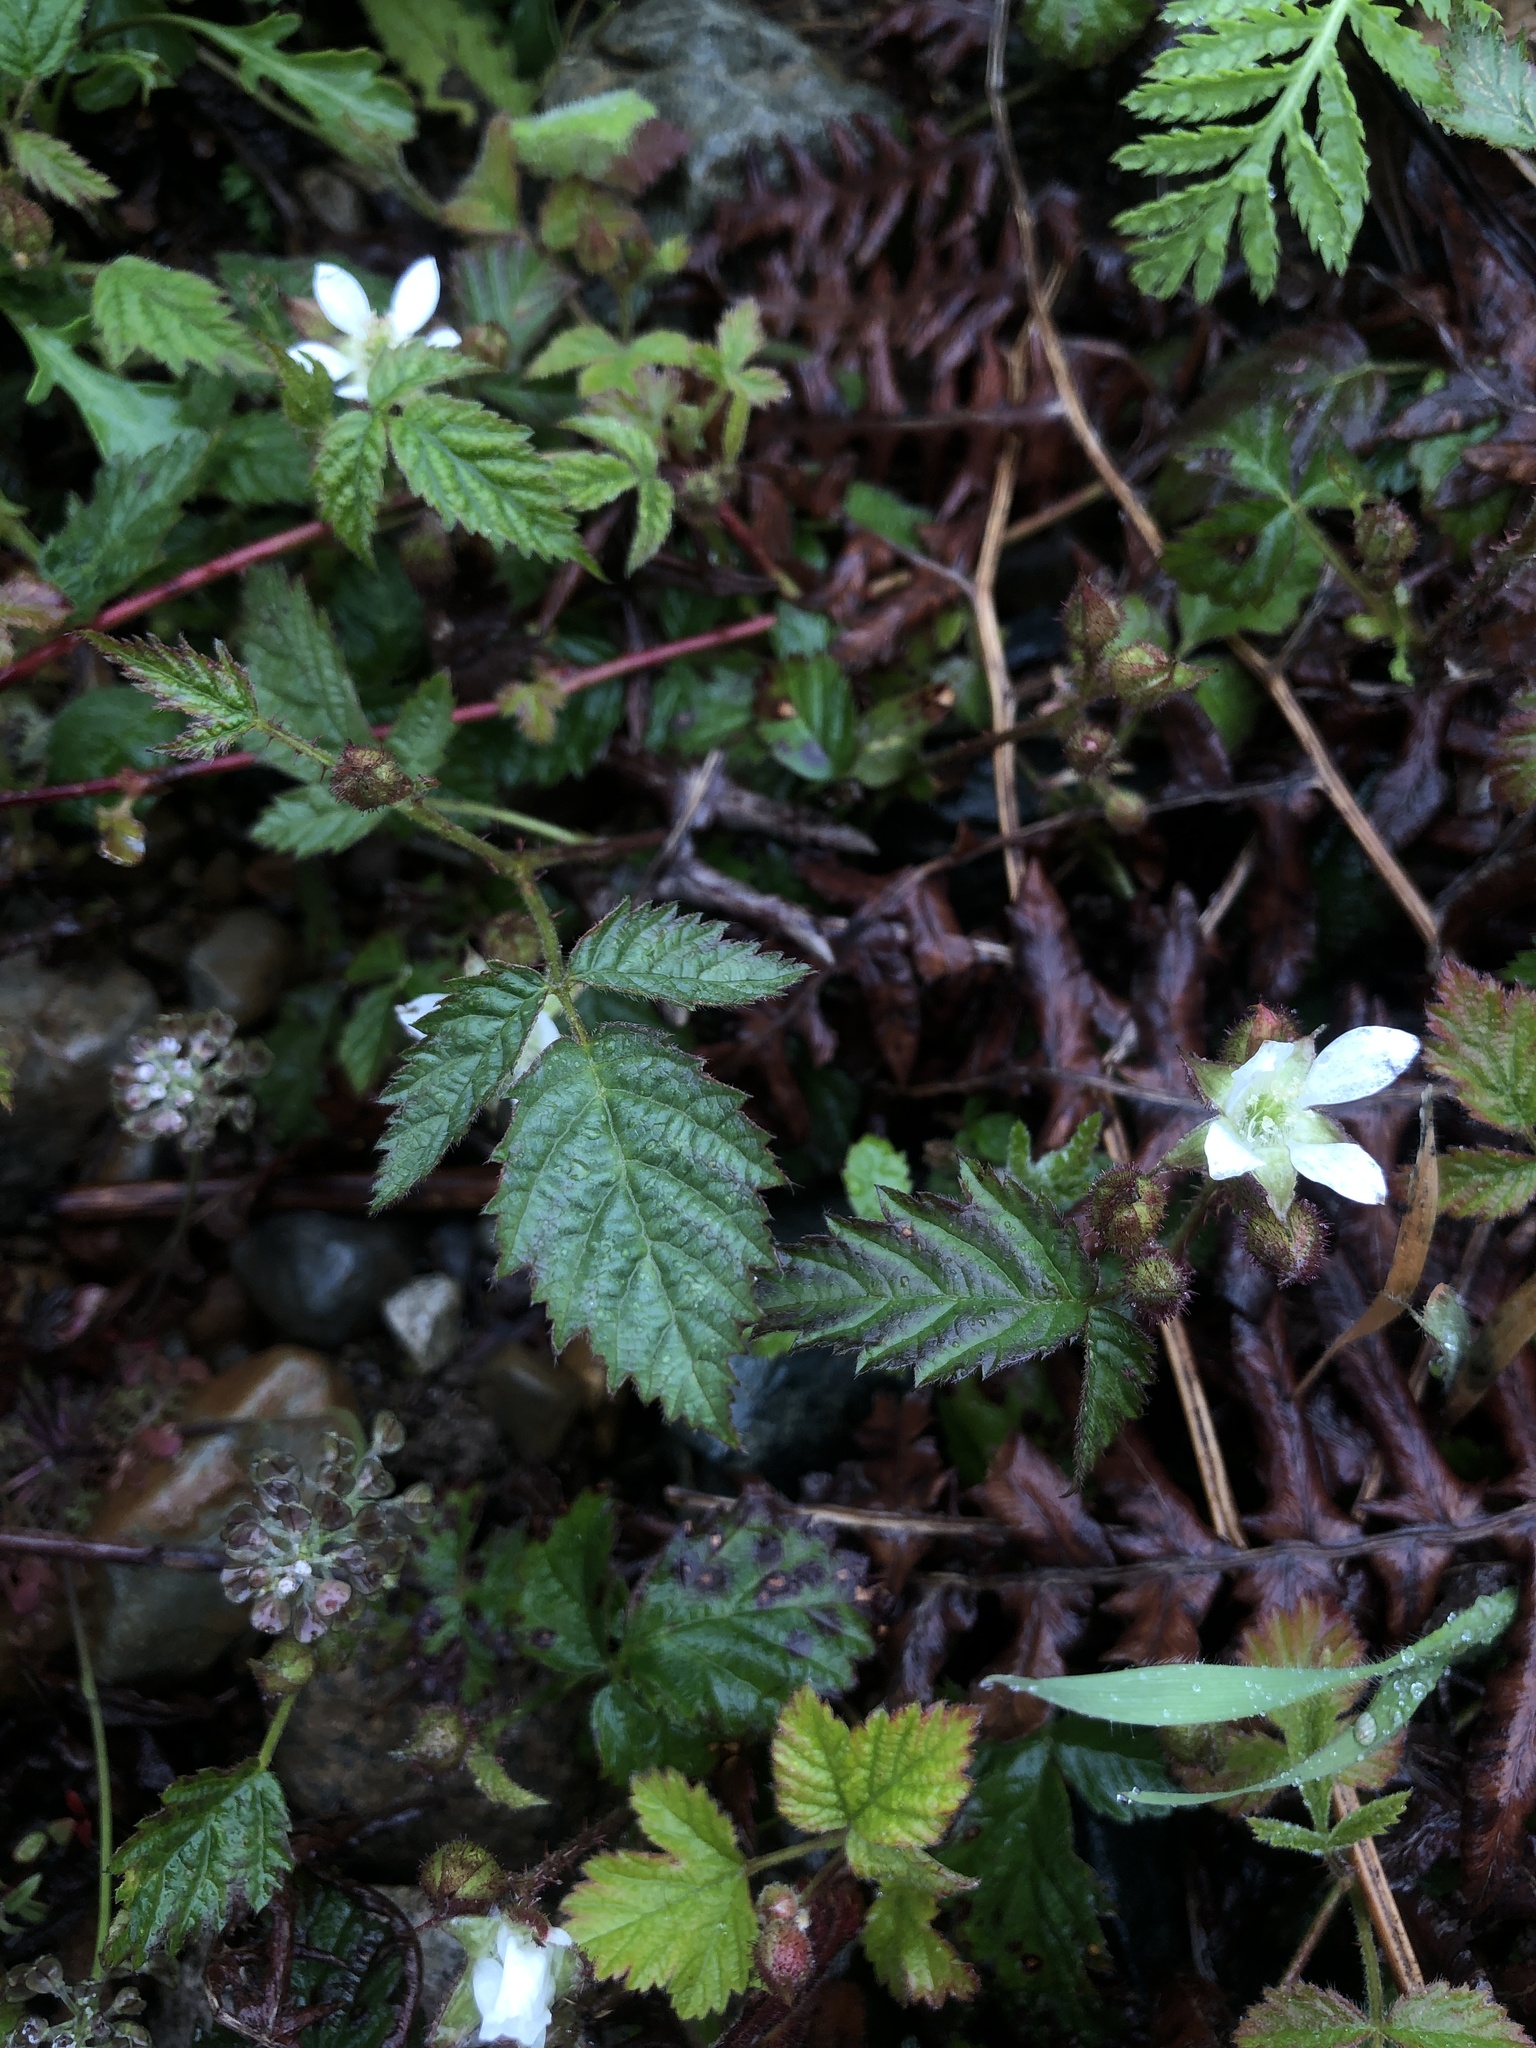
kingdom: Plantae
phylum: Tracheophyta
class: Magnoliopsida
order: Rosales
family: Rosaceae
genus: Rubus
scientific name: Rubus ursinus
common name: Pacific blackberry
